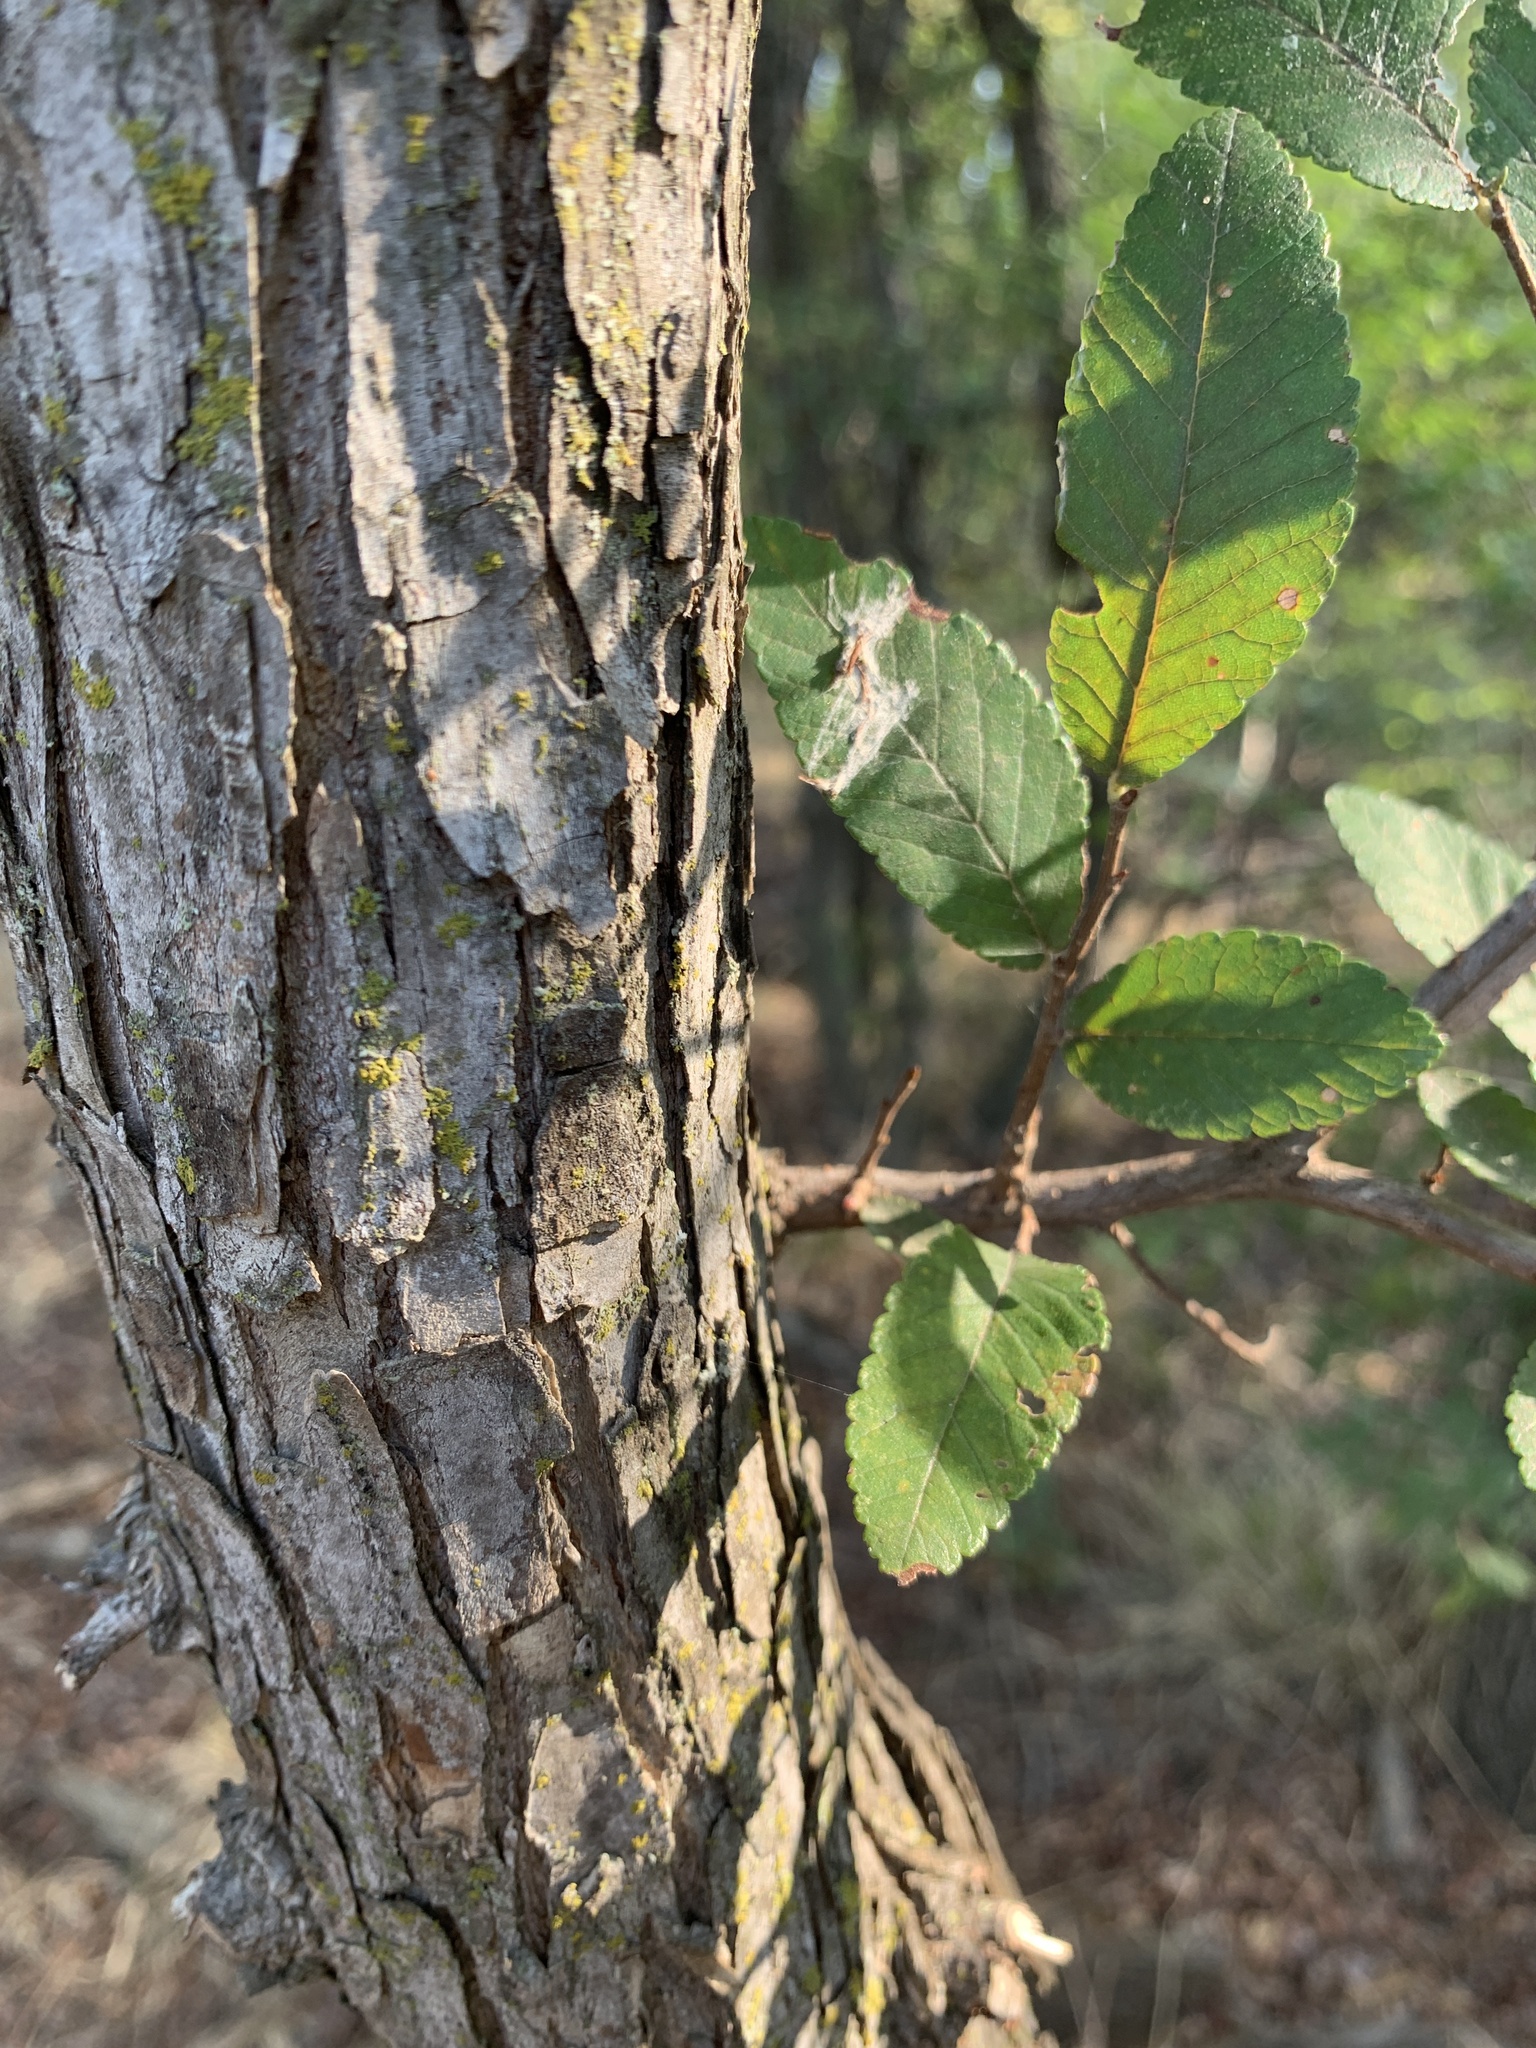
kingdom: Plantae
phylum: Tracheophyta
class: Magnoliopsida
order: Rosales
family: Ulmaceae
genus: Ulmus
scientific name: Ulmus crassifolia
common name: Basket elm
